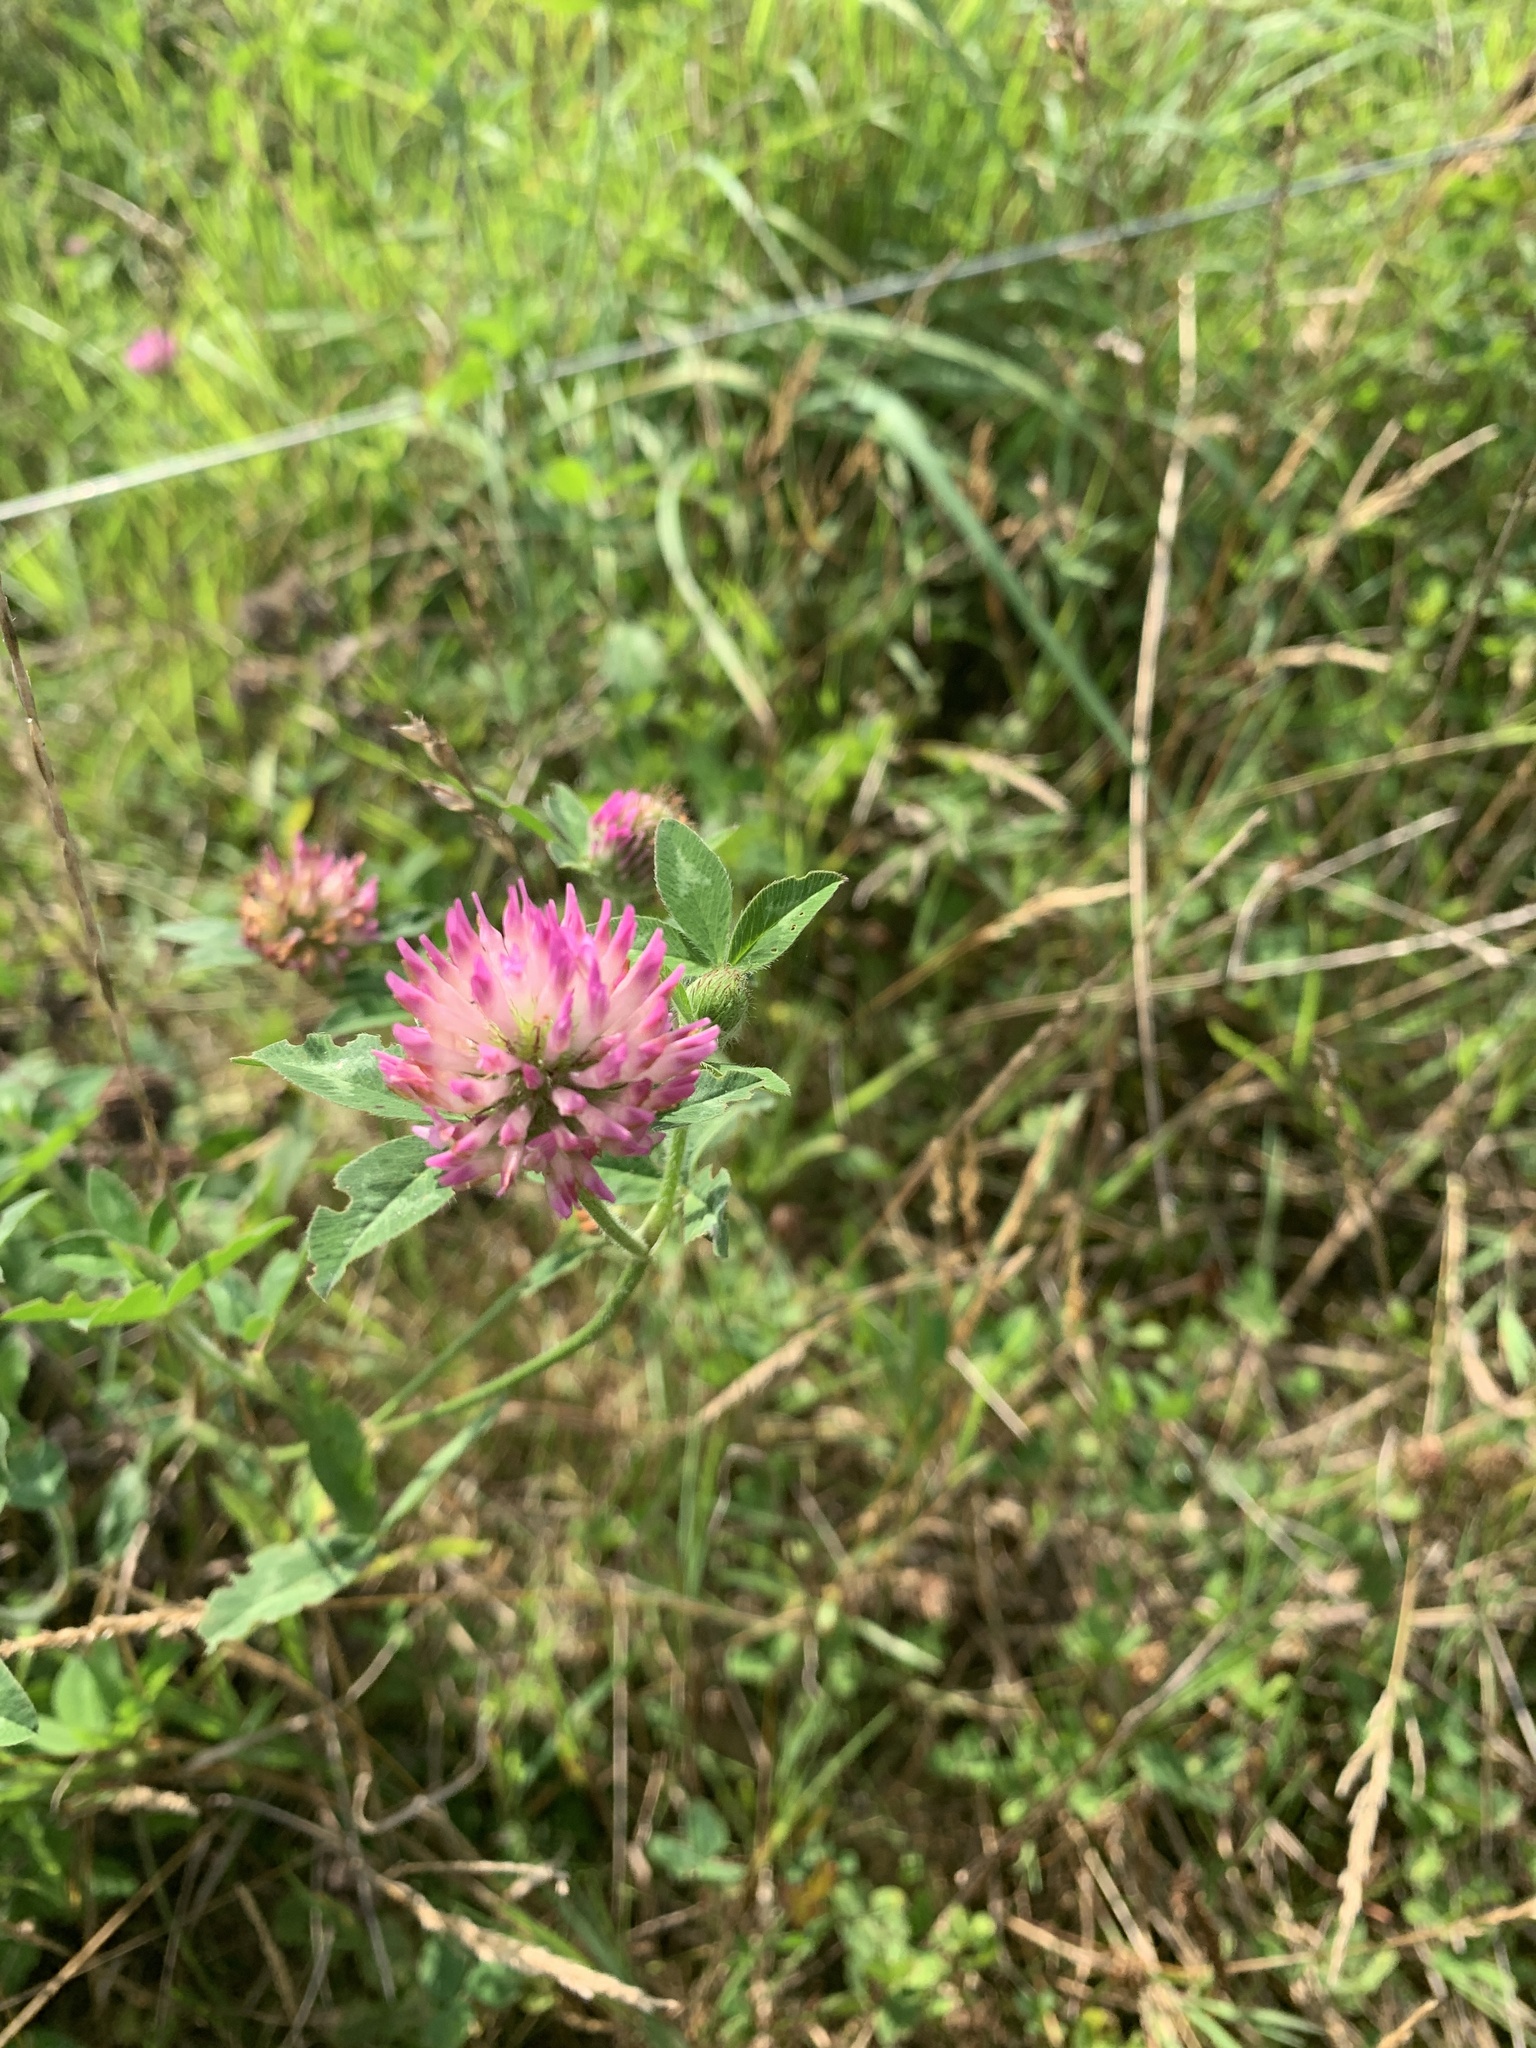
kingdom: Plantae
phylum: Tracheophyta
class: Magnoliopsida
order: Fabales
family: Fabaceae
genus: Trifolium
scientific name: Trifolium pratense
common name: Red clover
